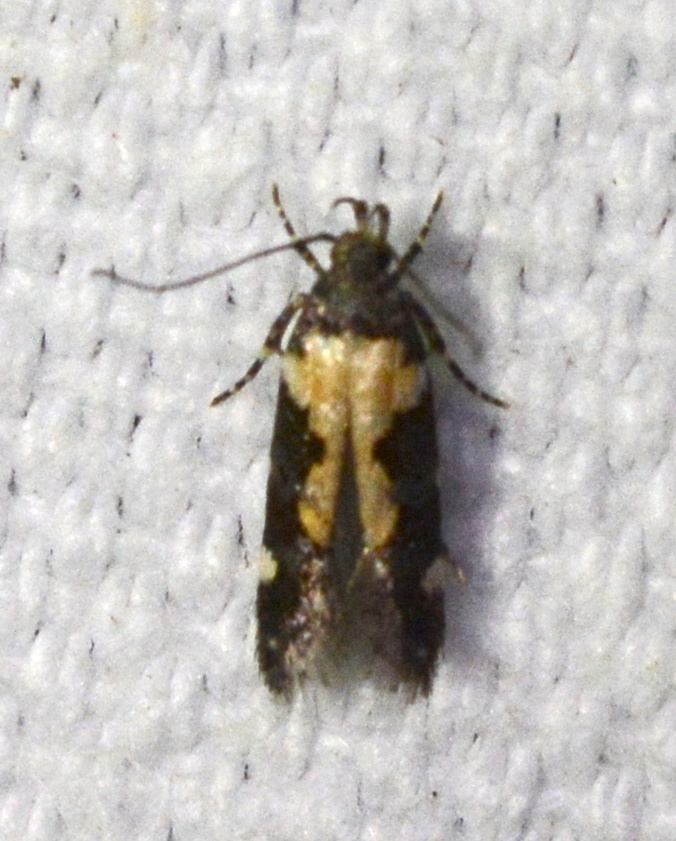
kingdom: Animalia
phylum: Arthropoda
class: Insecta
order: Lepidoptera
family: Gelechiidae
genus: Stegasta
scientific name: Stegasta bosqueella
